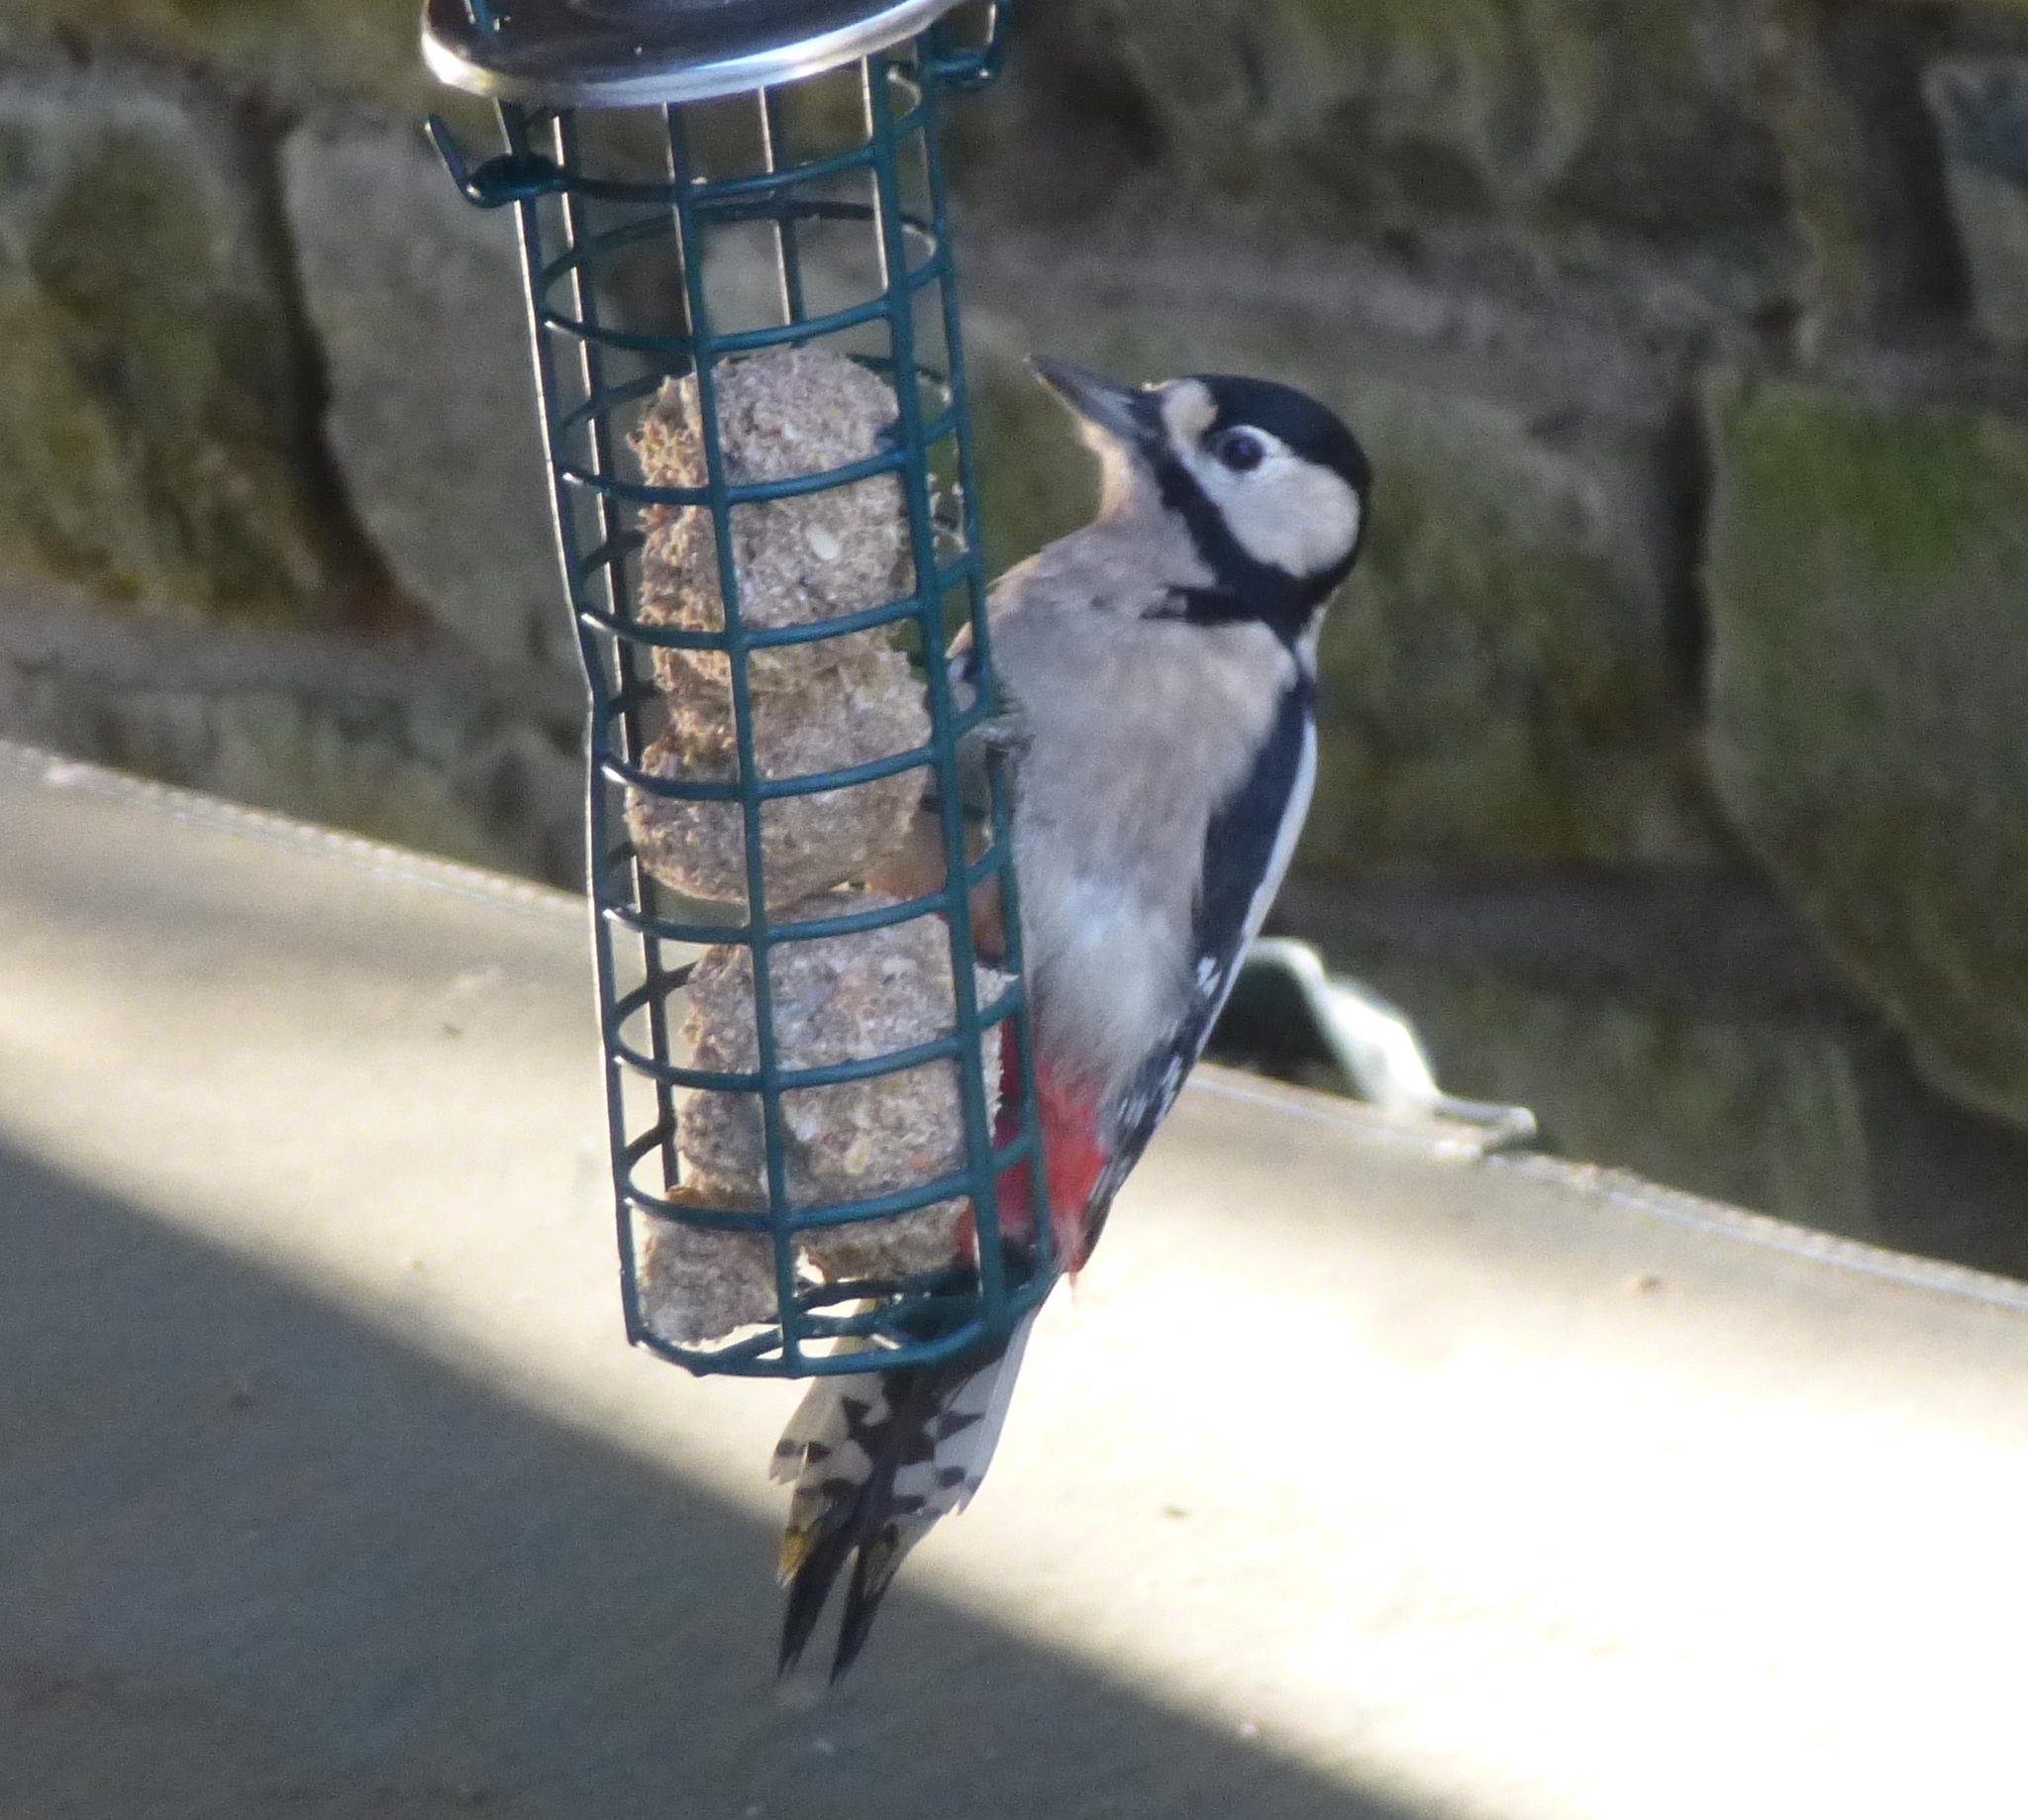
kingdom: Animalia
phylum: Chordata
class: Aves
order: Piciformes
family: Picidae
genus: Dendrocopos
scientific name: Dendrocopos major
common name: Great spotted woodpecker
